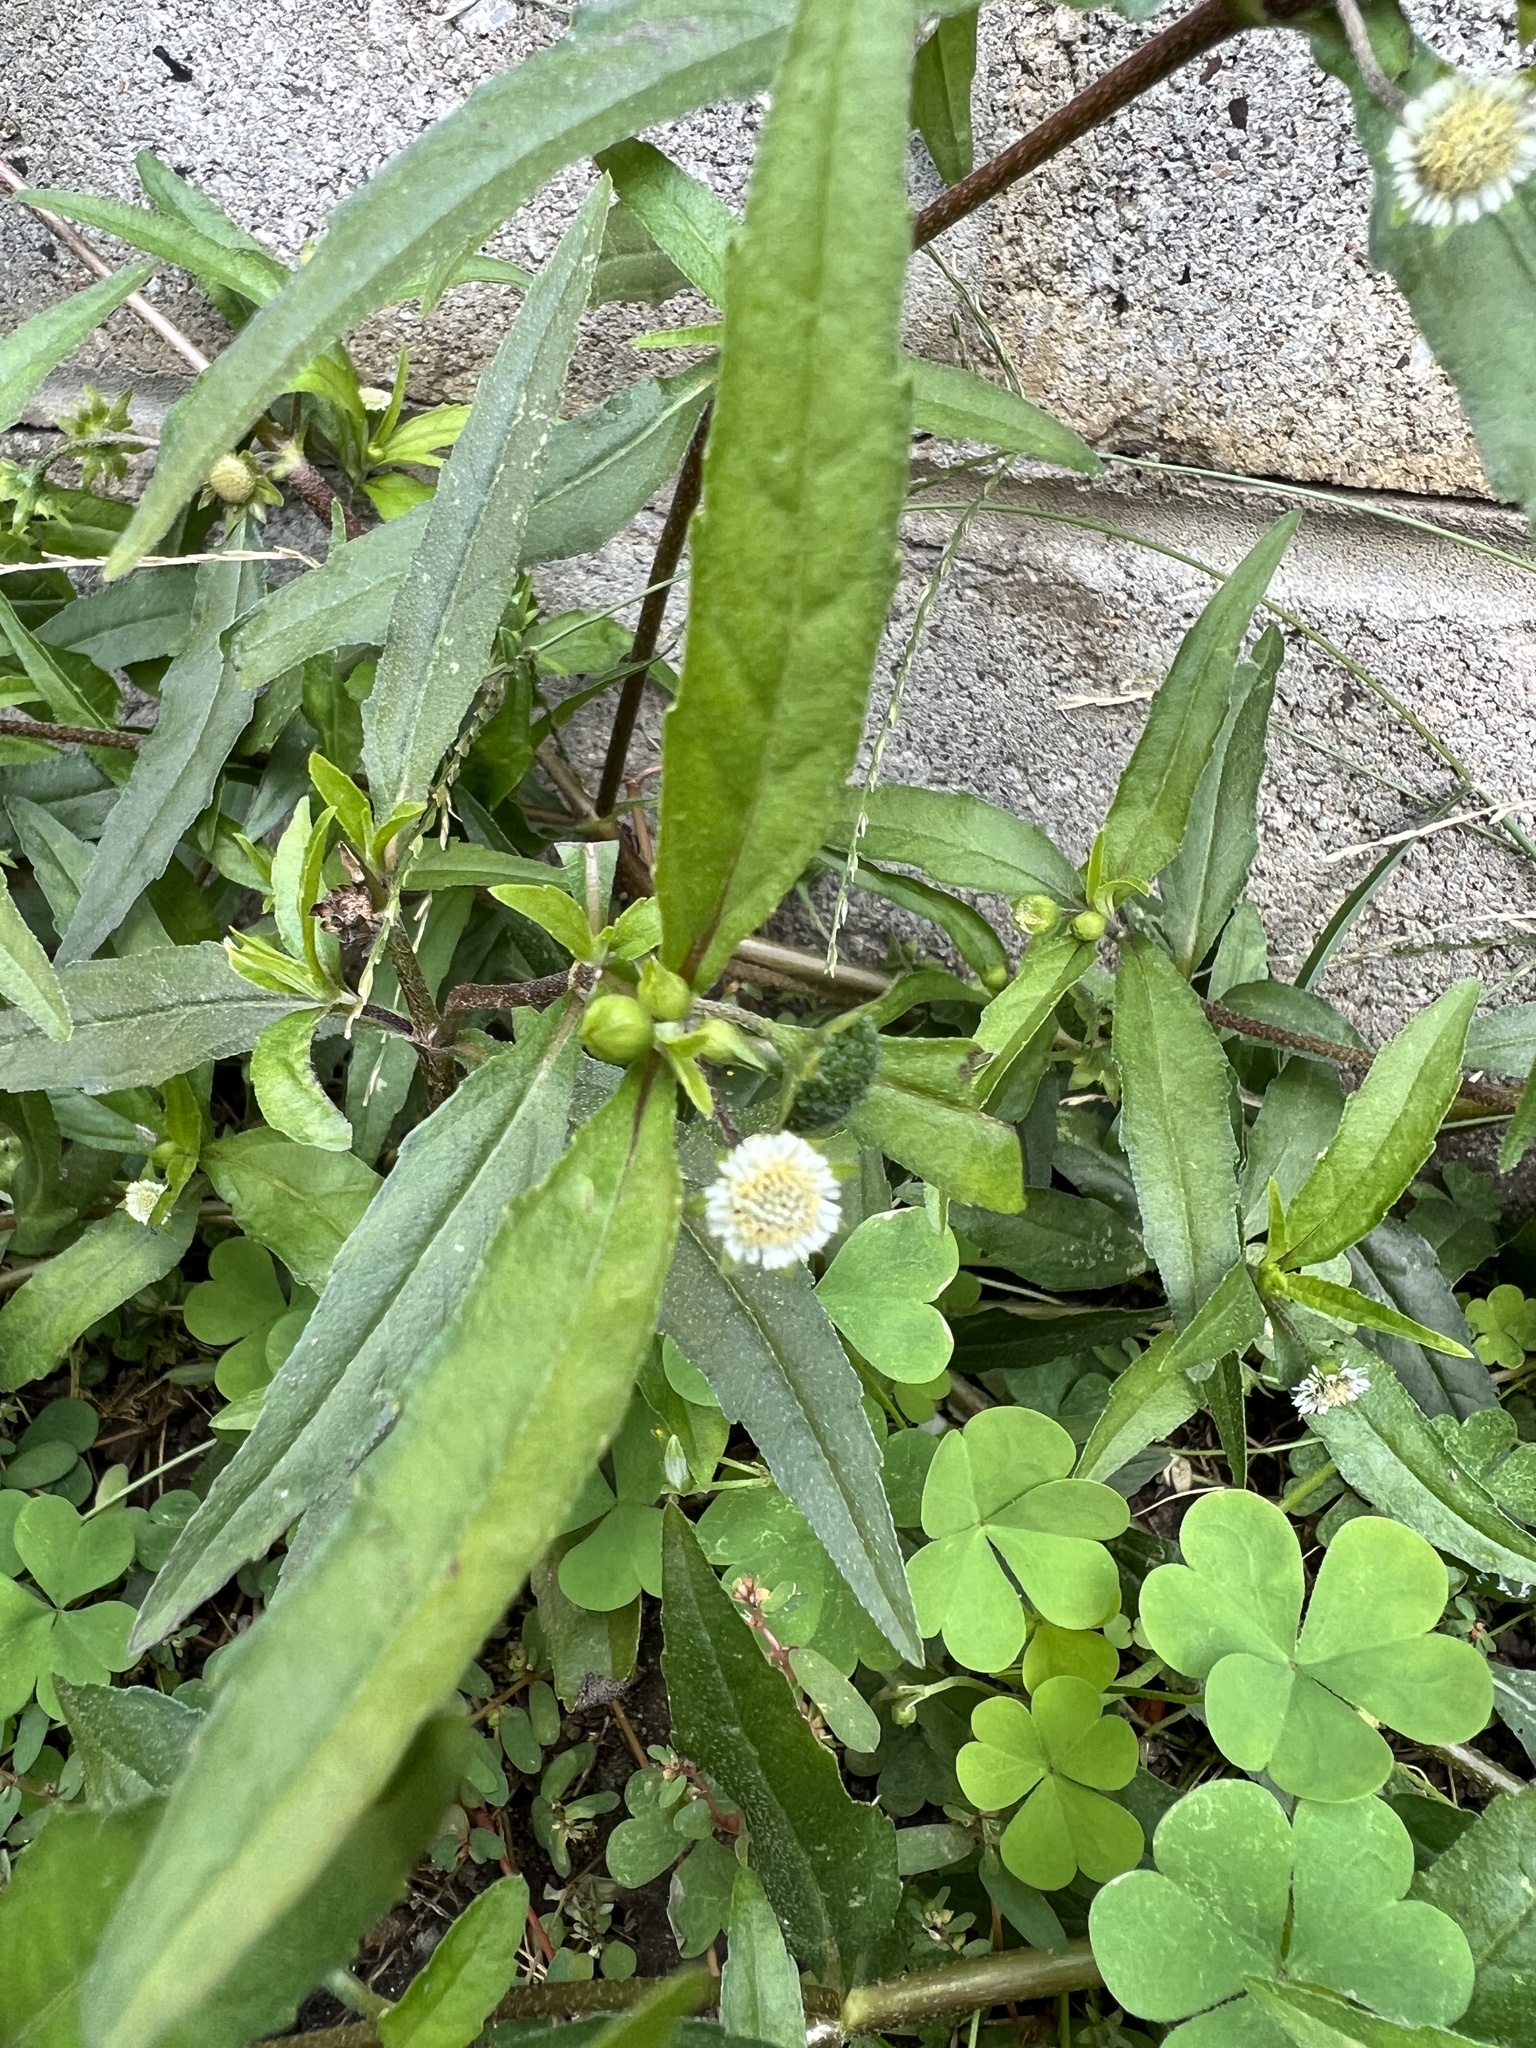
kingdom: Plantae
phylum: Tracheophyta
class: Magnoliopsida
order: Asterales
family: Asteraceae
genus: Eclipta
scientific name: Eclipta prostrata
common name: False daisy
